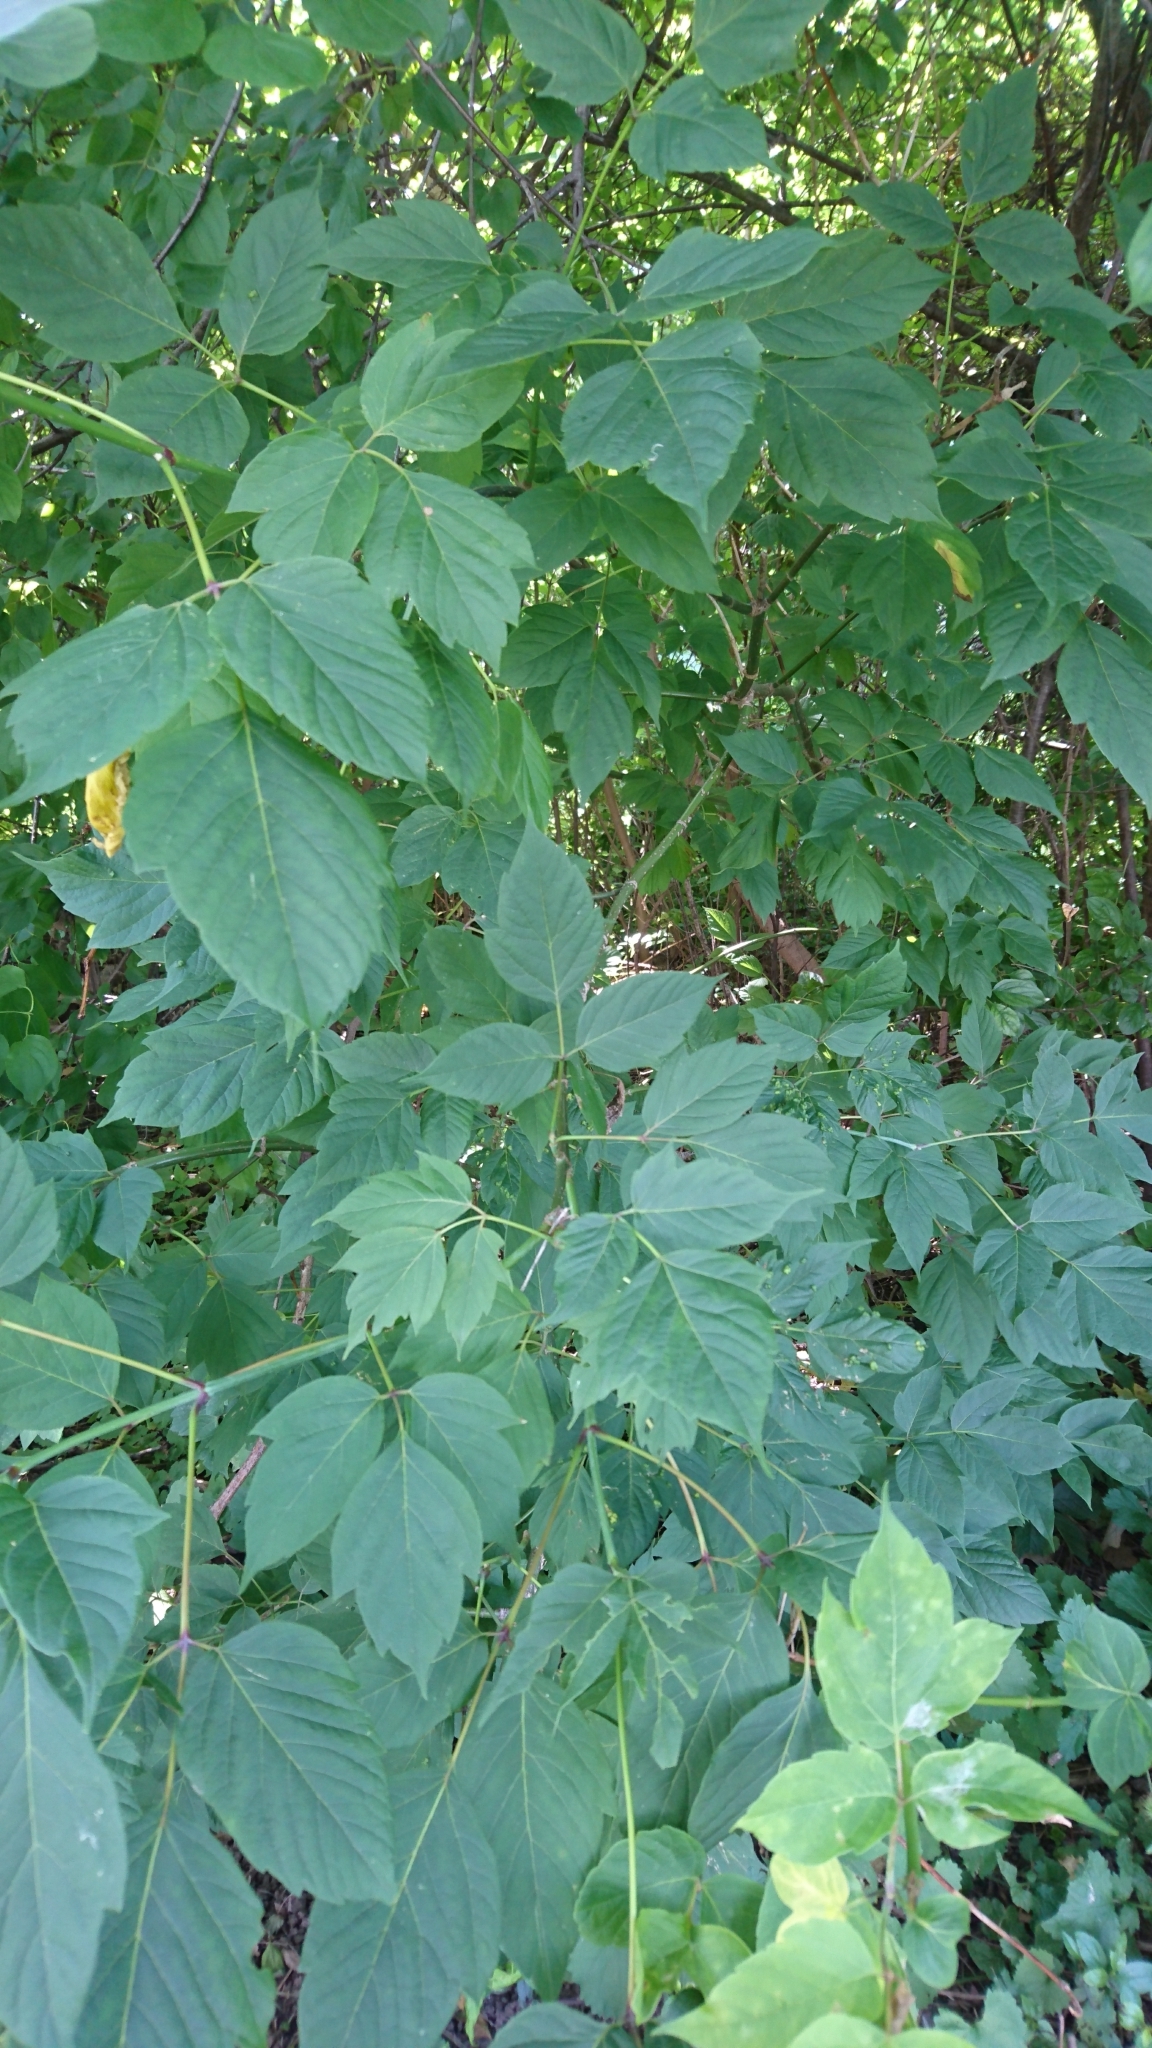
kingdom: Plantae
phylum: Tracheophyta
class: Magnoliopsida
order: Sapindales
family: Sapindaceae
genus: Acer
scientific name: Acer negundo
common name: Ashleaf maple
